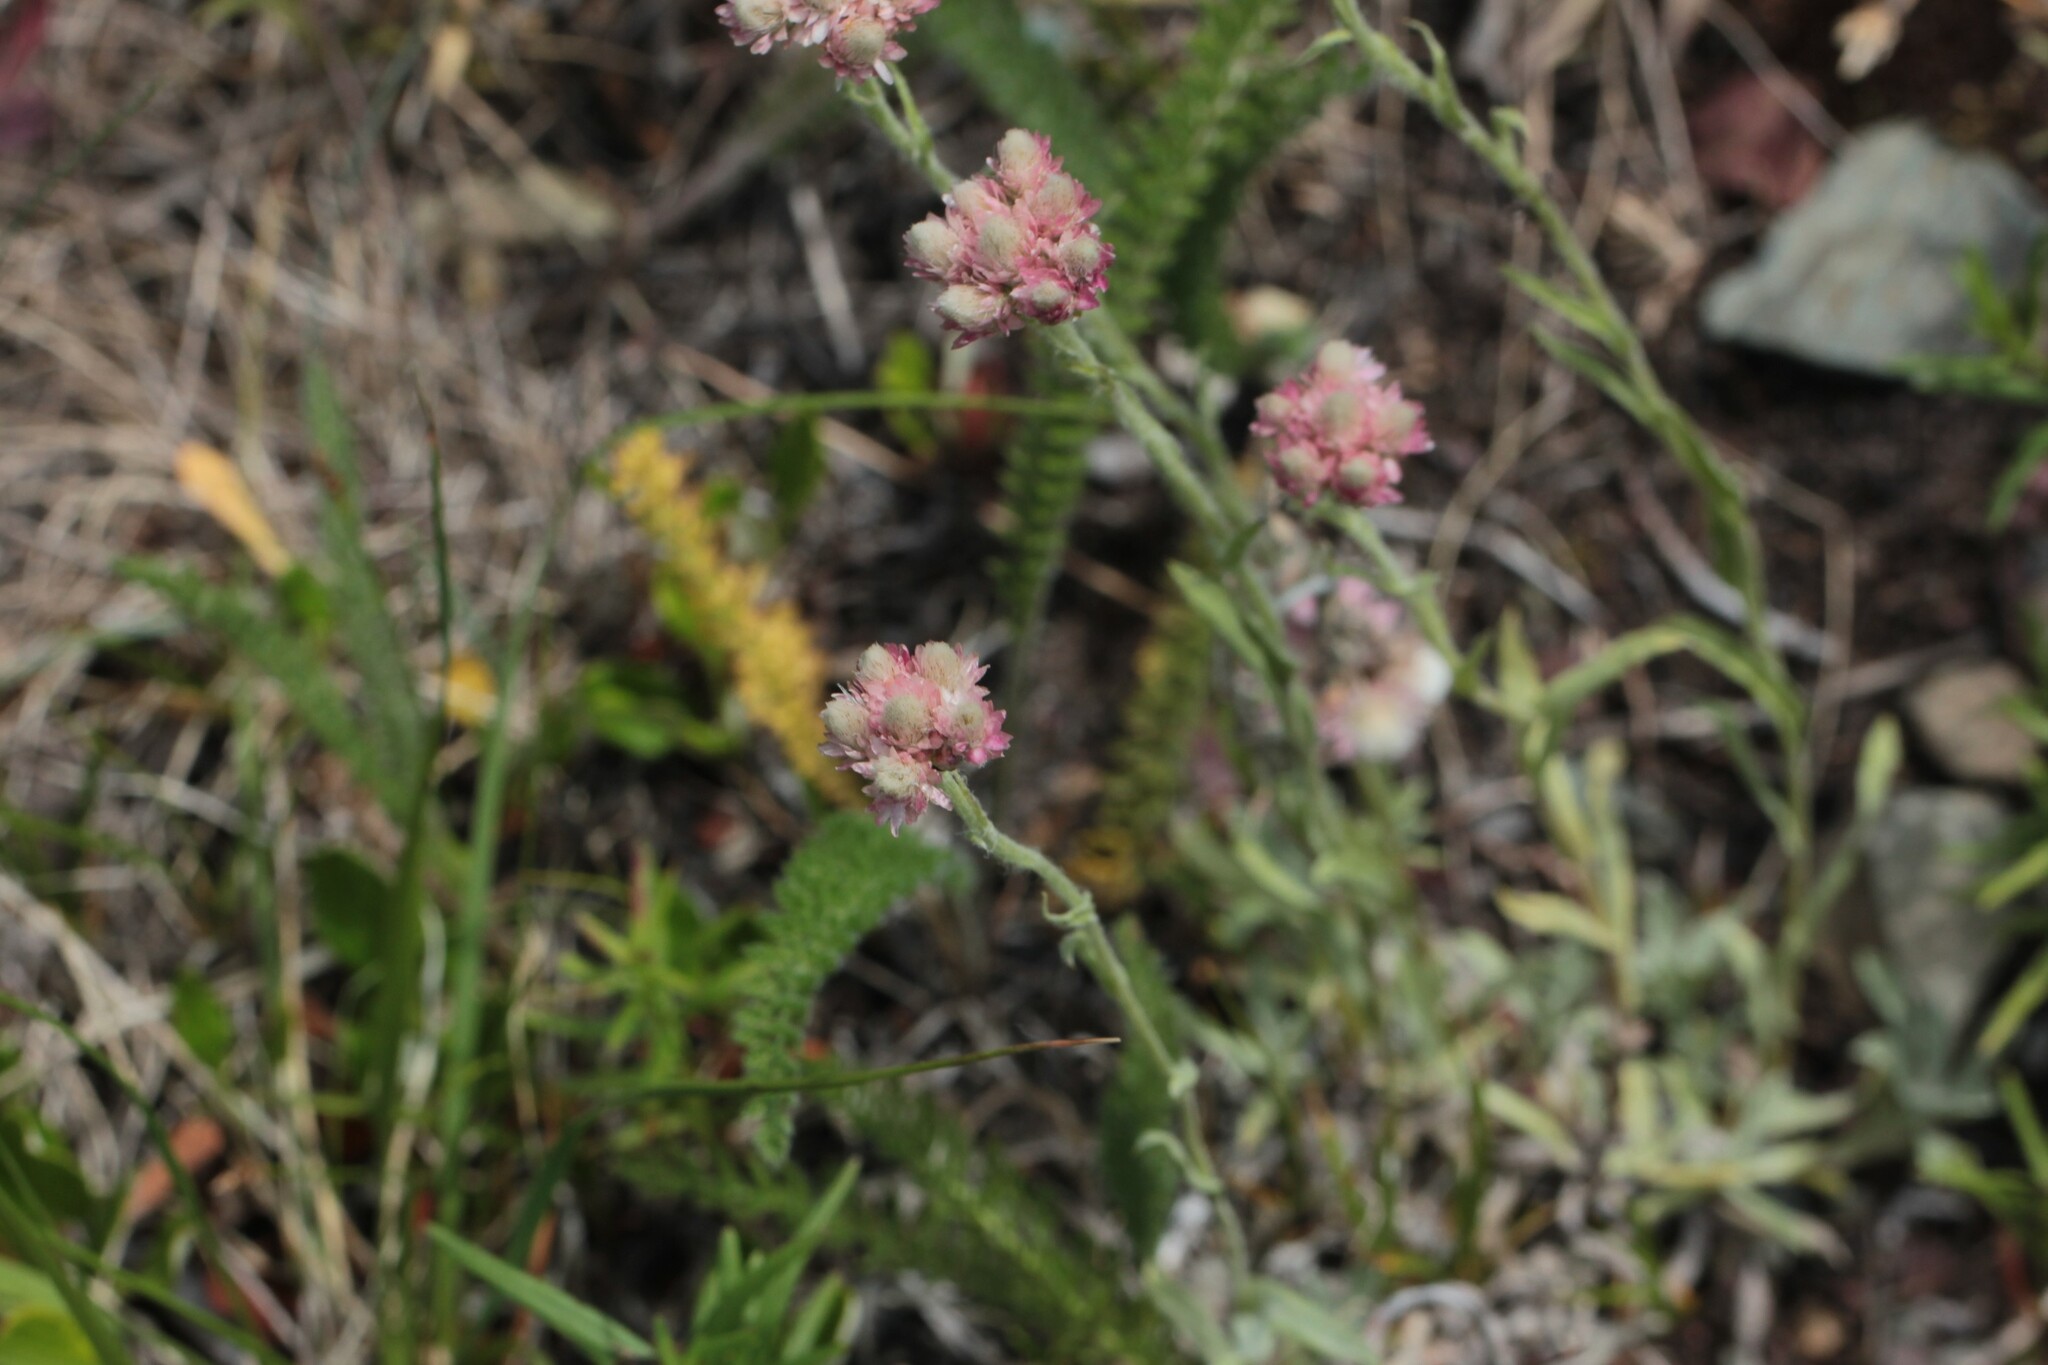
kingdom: Plantae
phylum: Tracheophyta
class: Magnoliopsida
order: Asterales
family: Asteraceae
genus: Antennaria
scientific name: Antennaria rosea
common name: Rosy pussytoes
